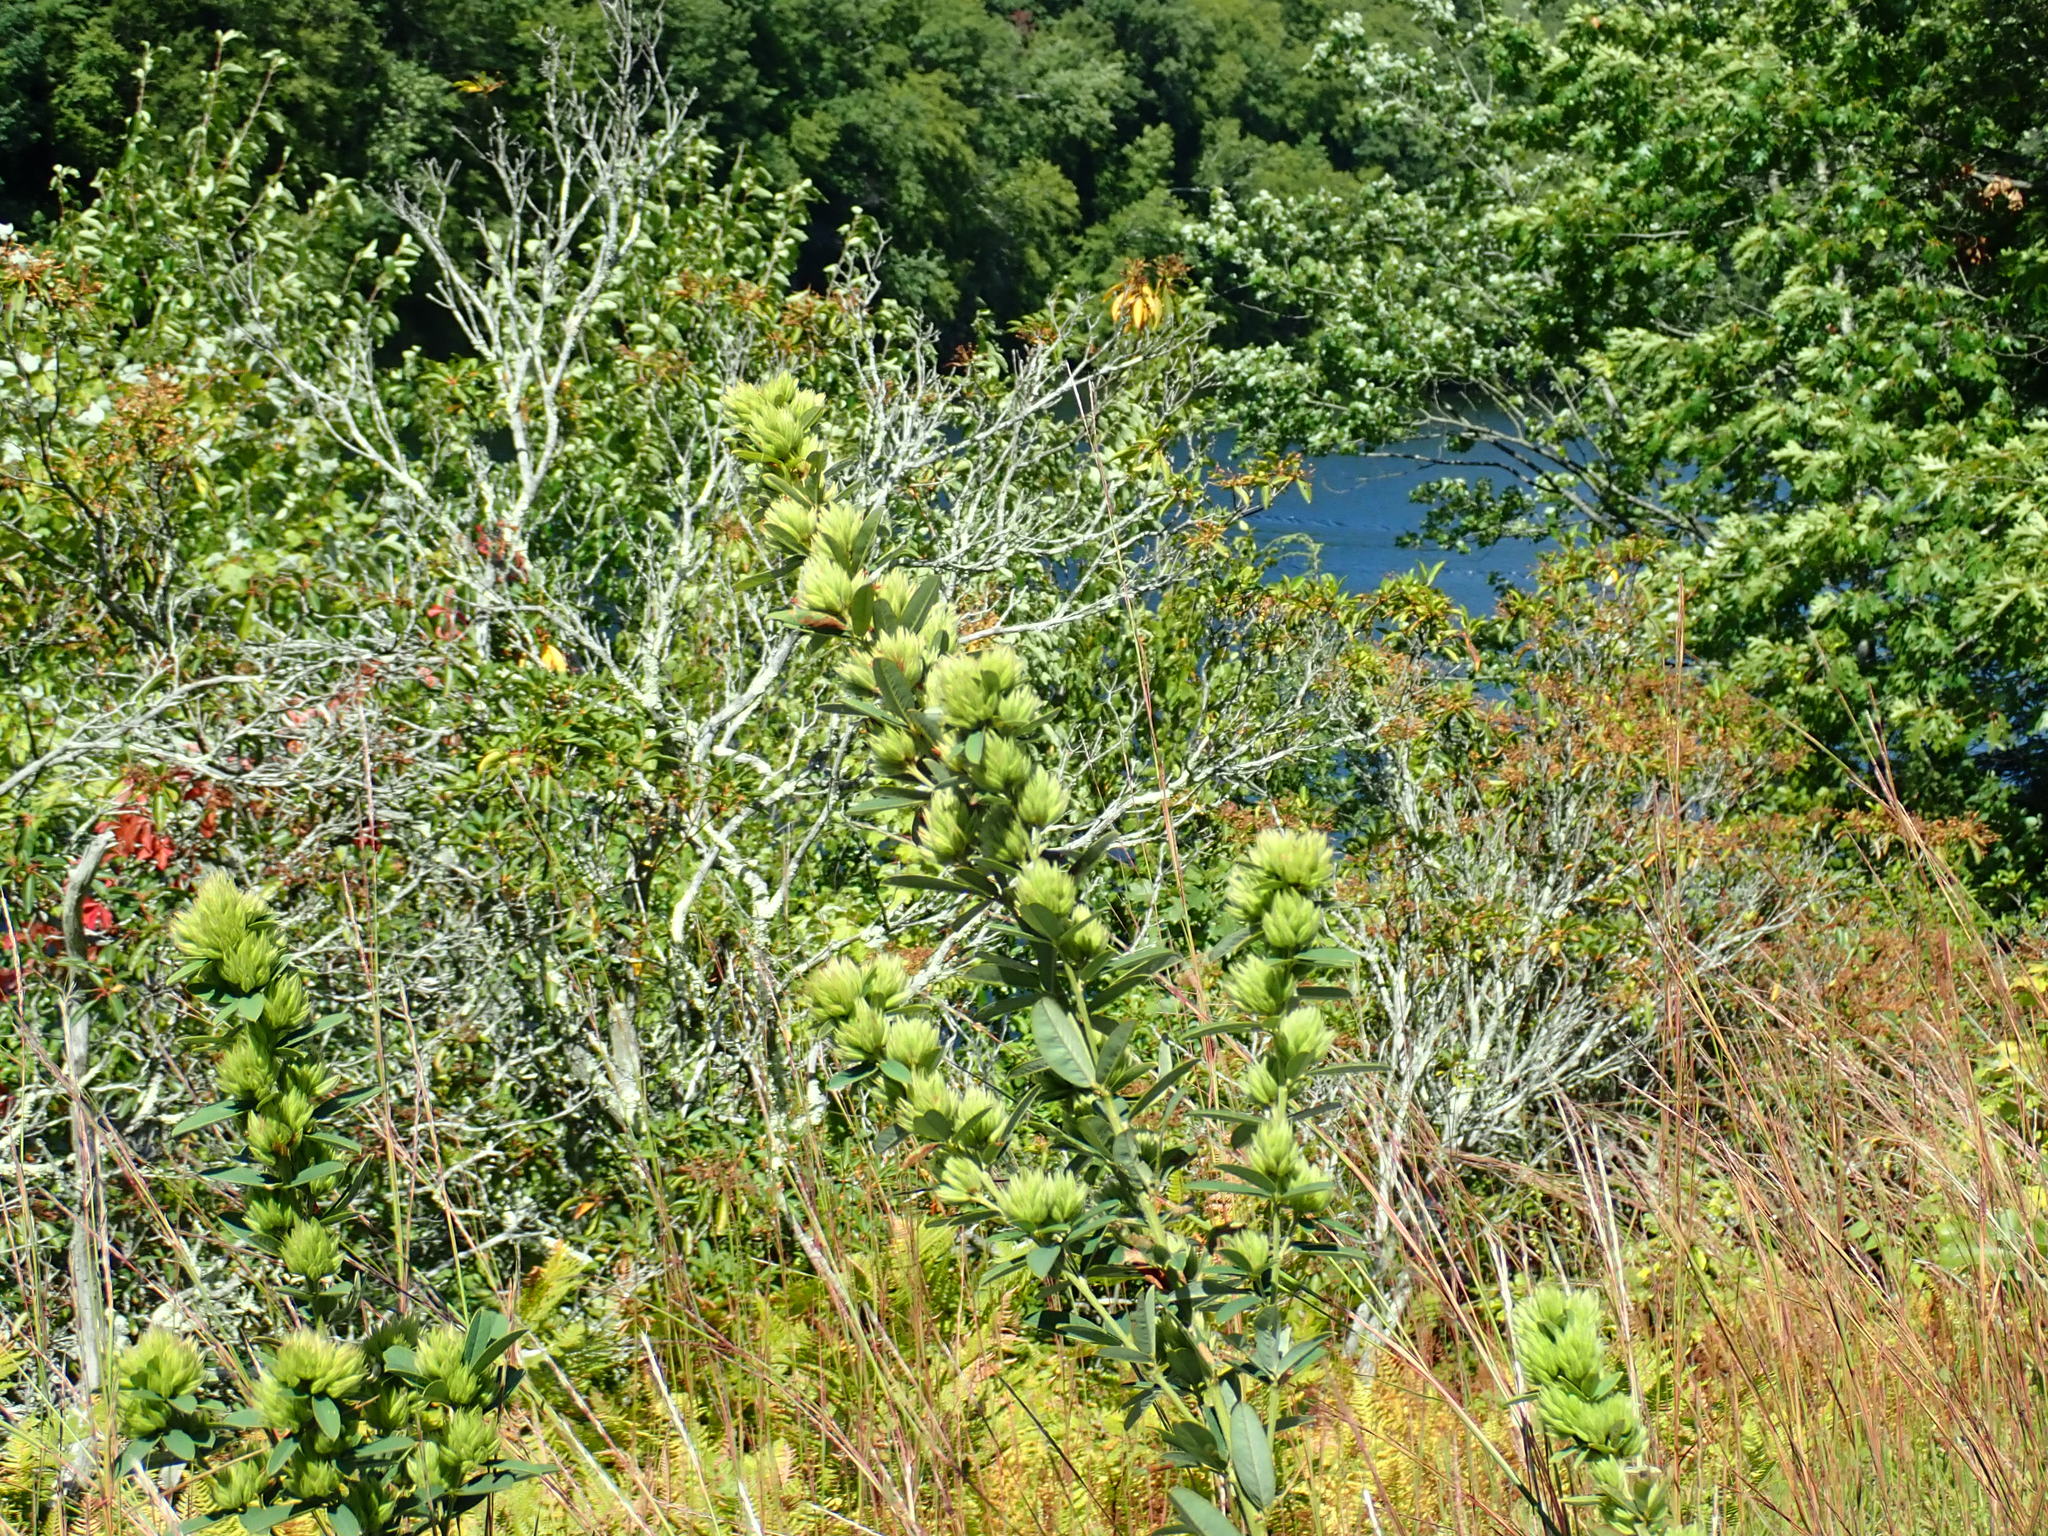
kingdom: Plantae
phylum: Tracheophyta
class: Magnoliopsida
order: Fabales
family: Fabaceae
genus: Lespedeza
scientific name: Lespedeza capitata
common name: Dusty clover
